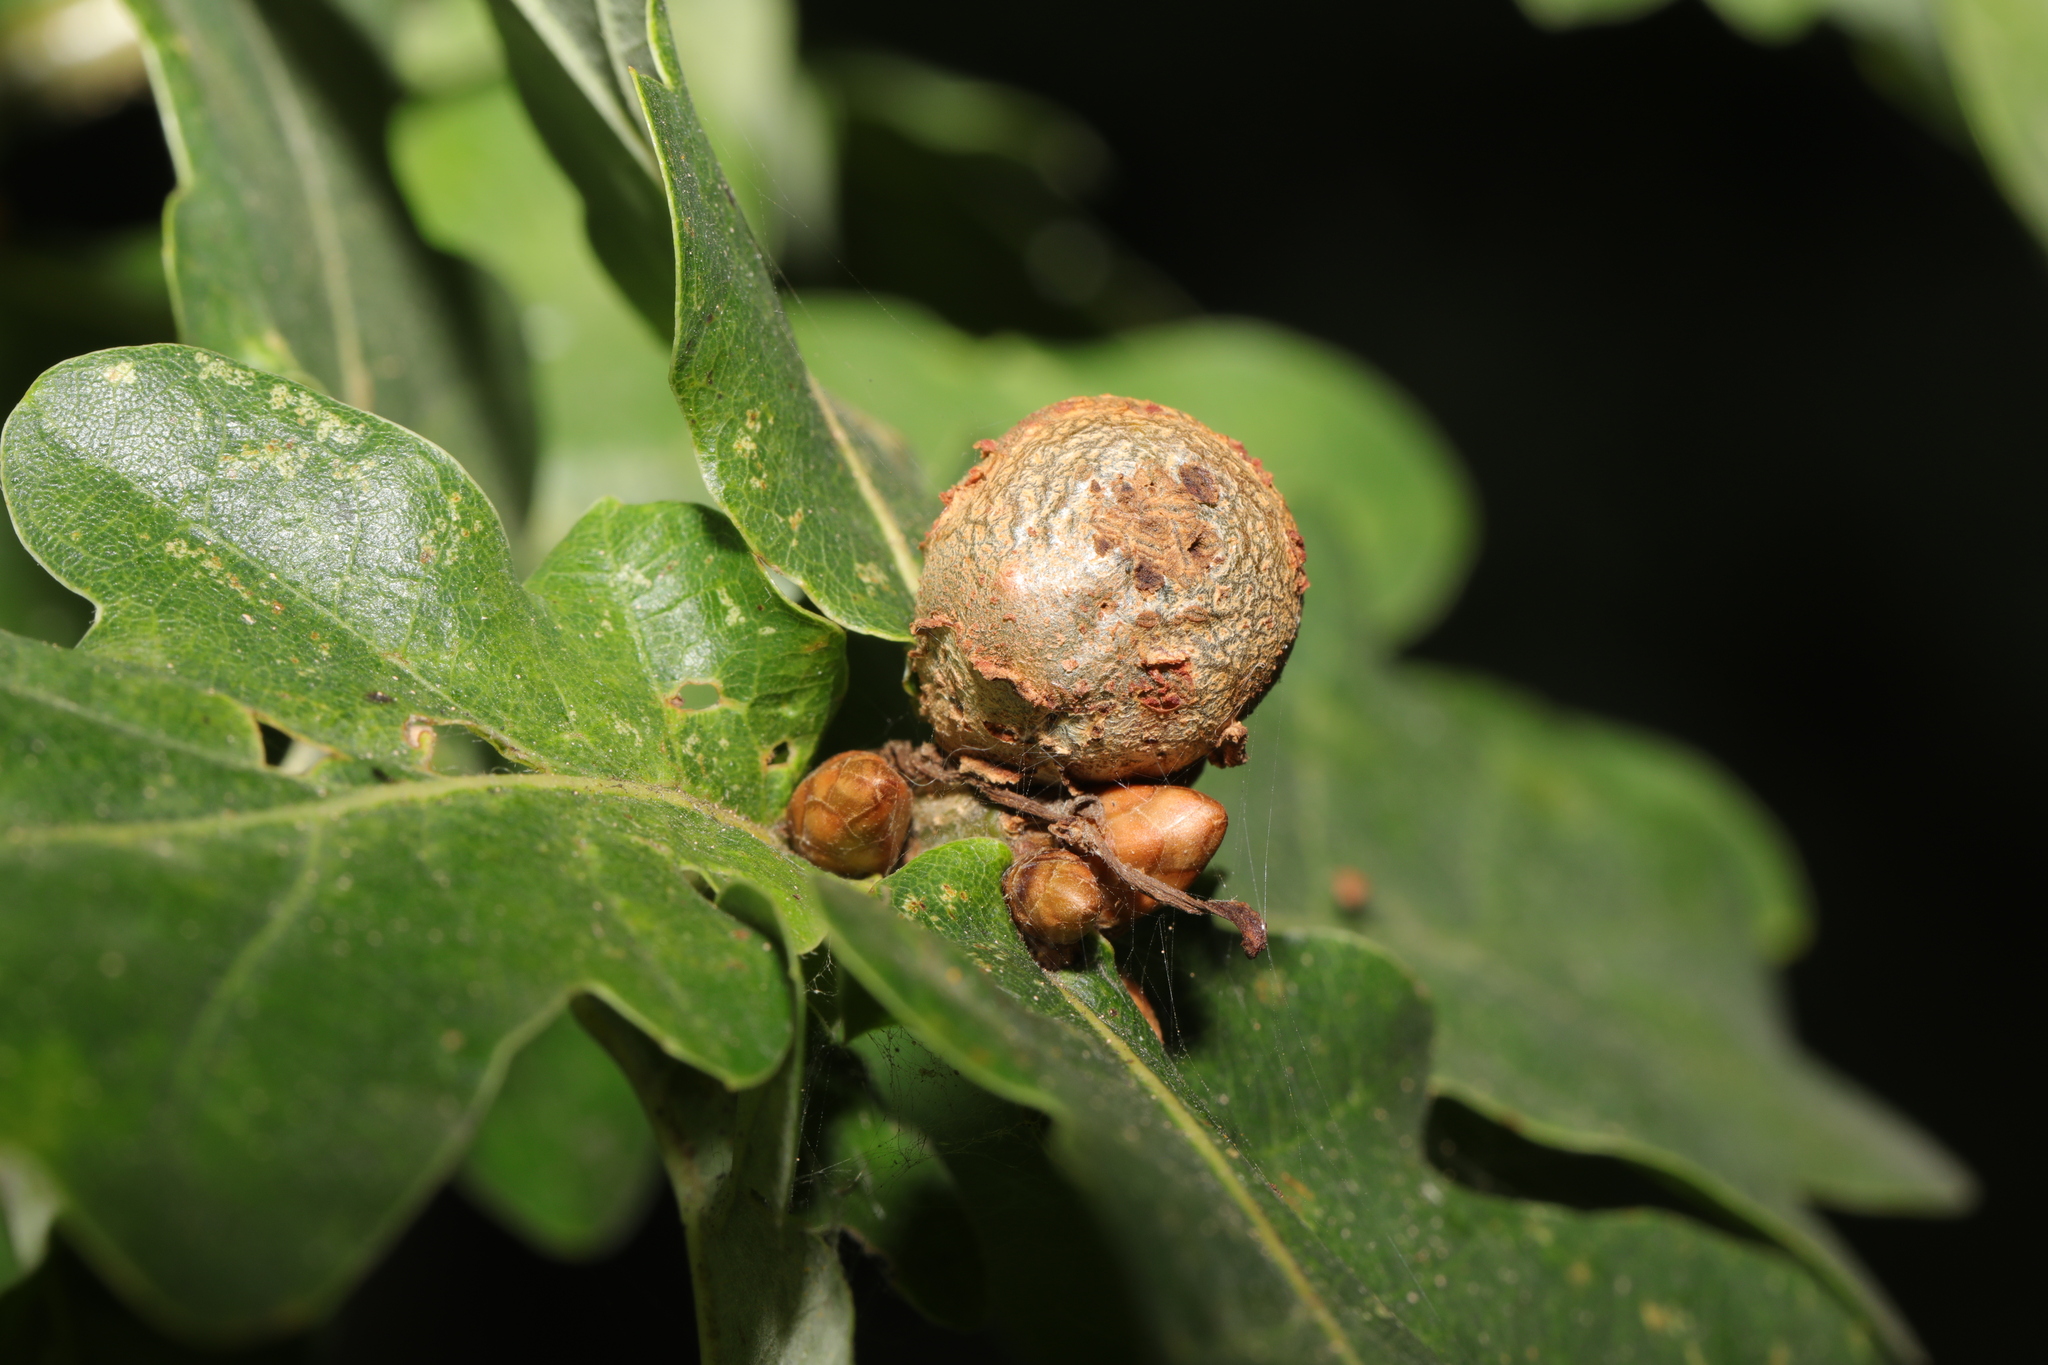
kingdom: Animalia
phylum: Arthropoda
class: Insecta
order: Hymenoptera
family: Cynipidae
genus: Andricus
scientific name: Andricus lignicolus
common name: Cola-nut gall
